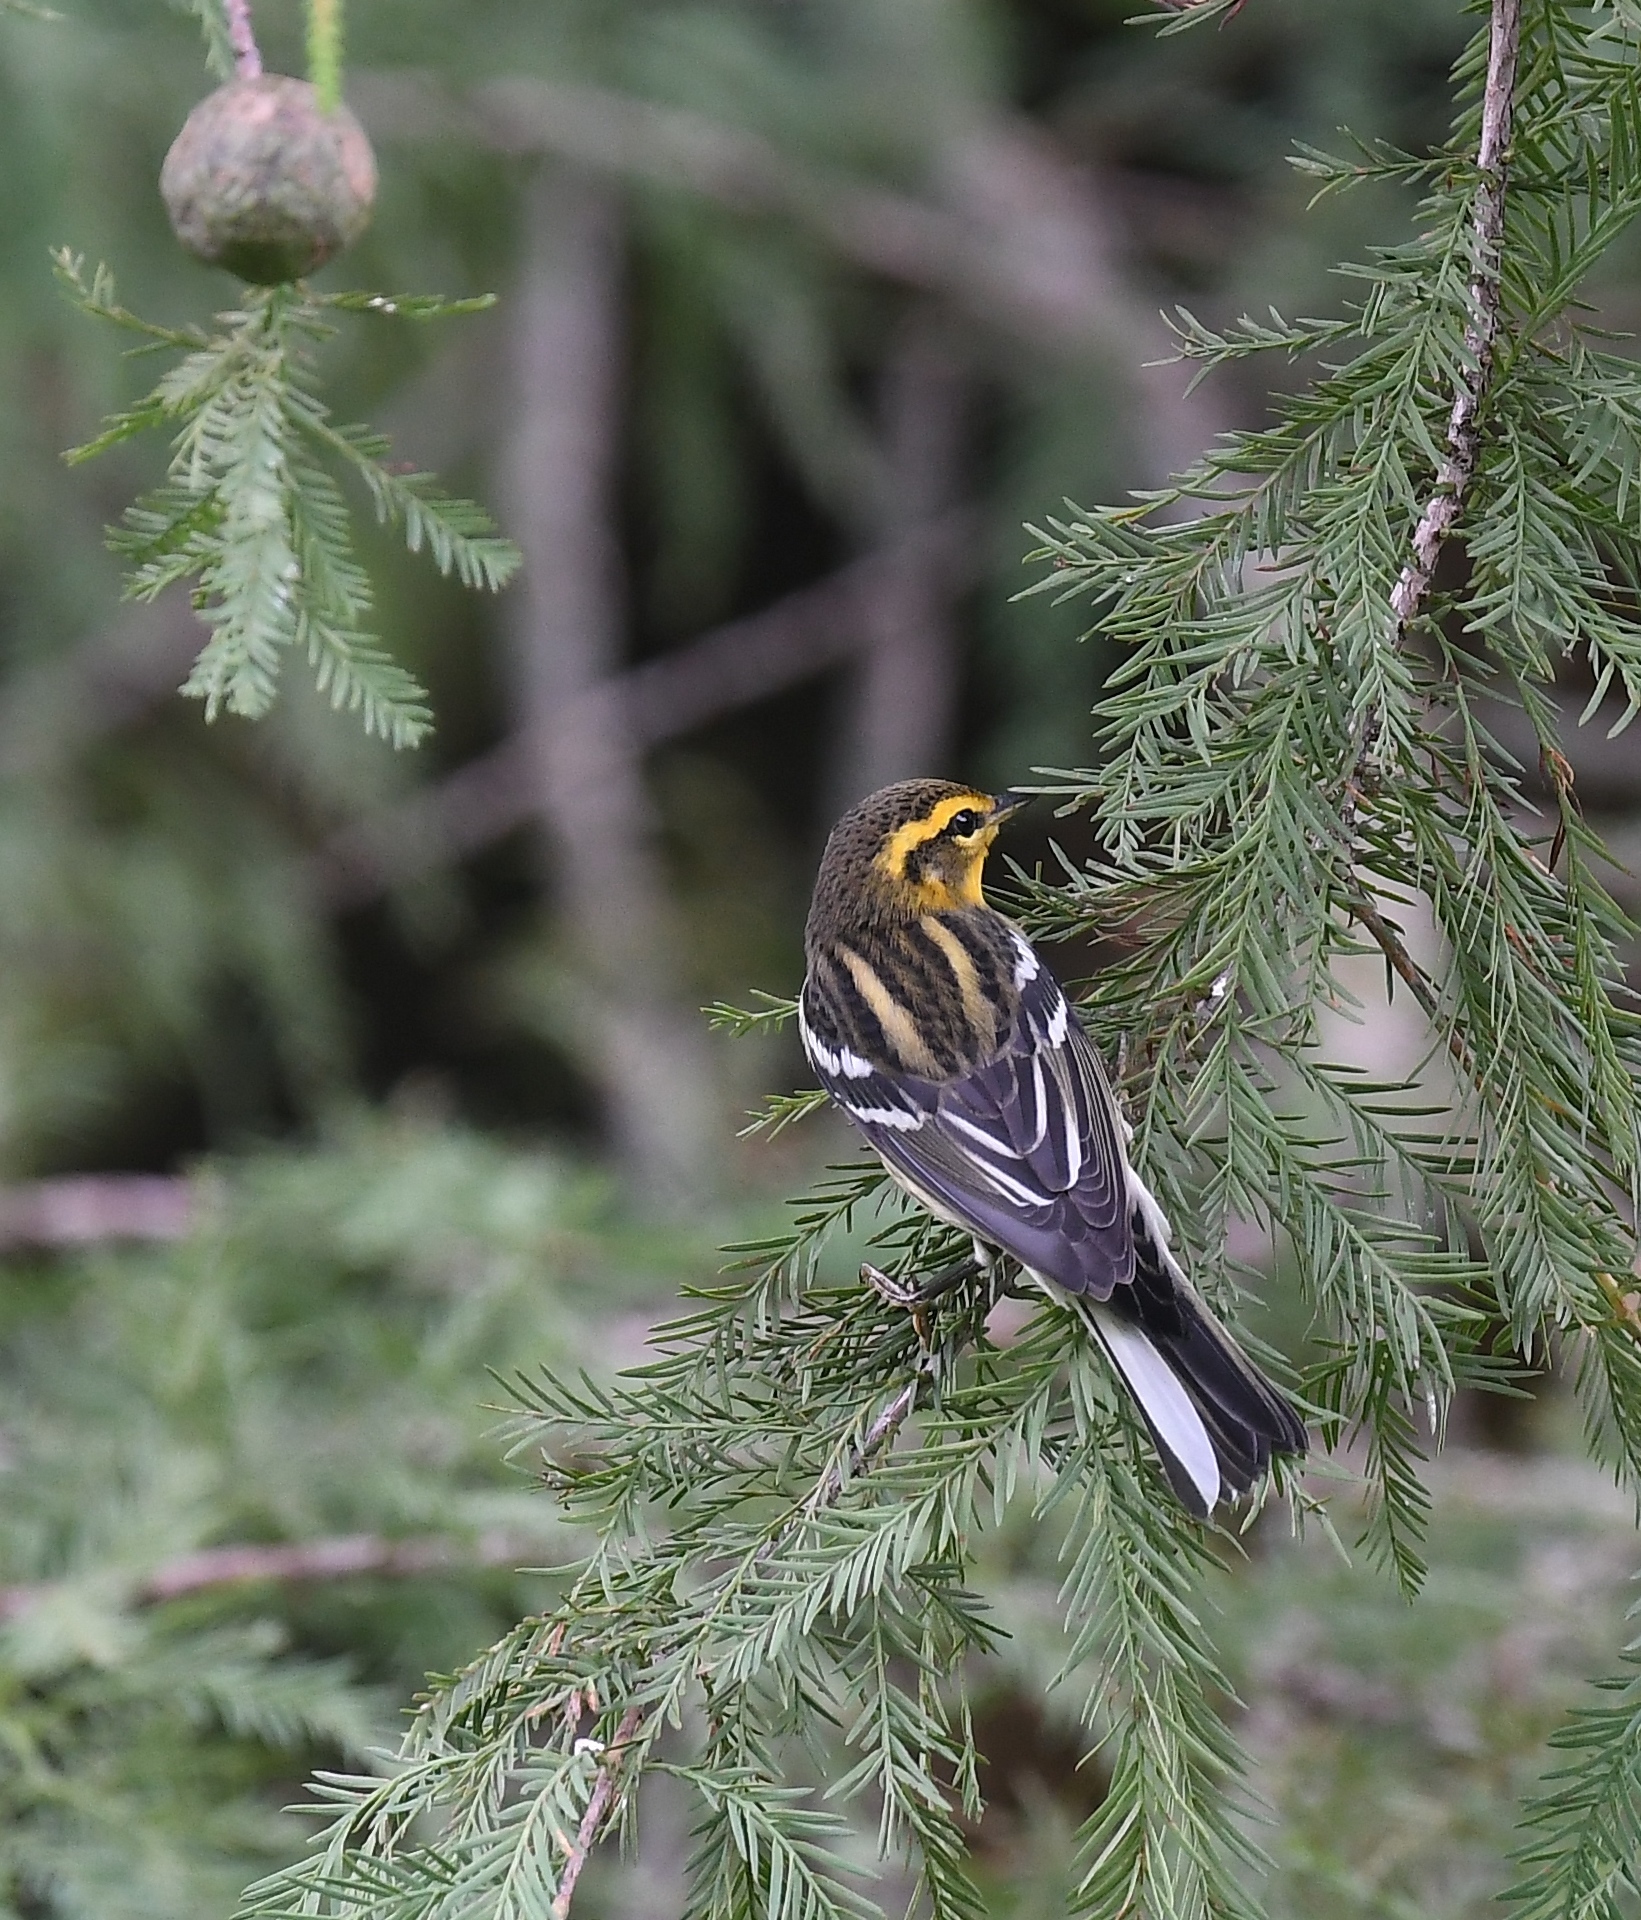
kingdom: Animalia
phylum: Chordata
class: Aves
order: Passeriformes
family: Parulidae
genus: Setophaga
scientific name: Setophaga fusca
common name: Blackburnian warbler
